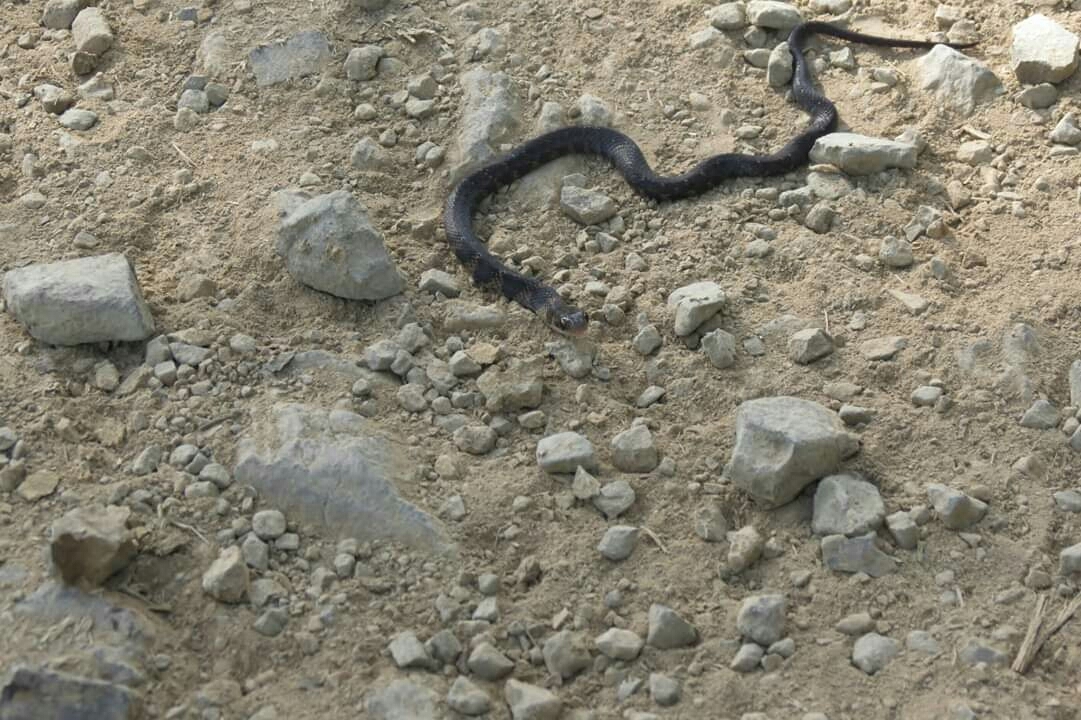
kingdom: Animalia
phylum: Chordata
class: Squamata
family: Colubridae
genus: Erythrolamprus
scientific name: Erythrolamprus epinephalus
